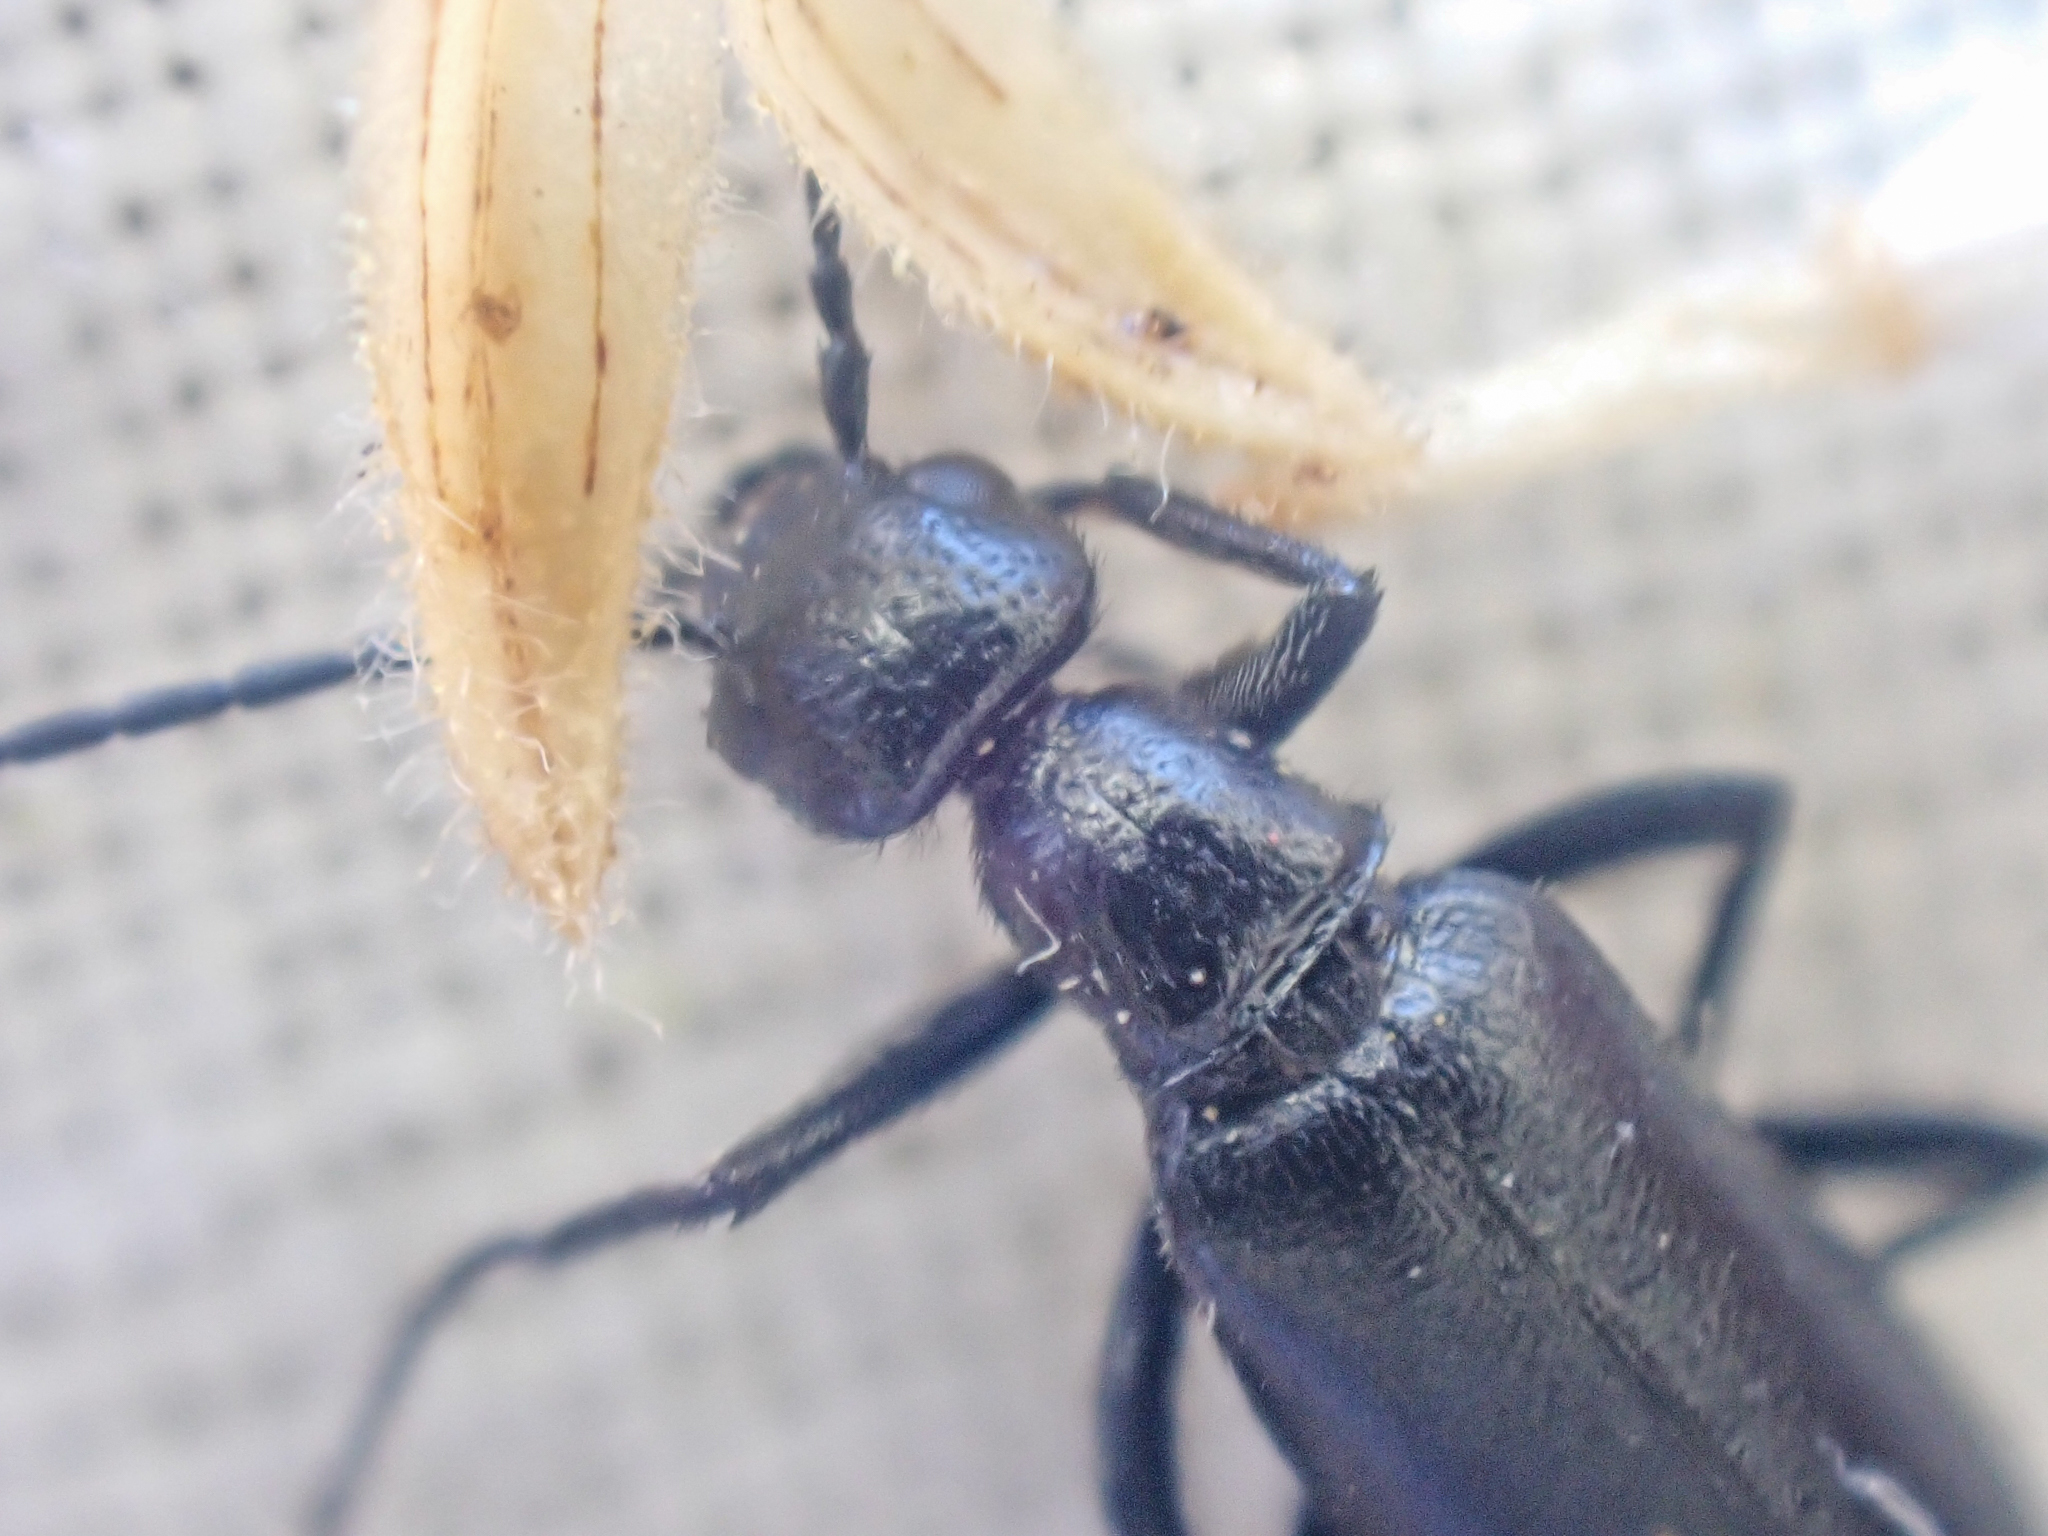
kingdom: Animalia
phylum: Arthropoda
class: Insecta
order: Coleoptera
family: Meloidae
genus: Epicauta
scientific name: Epicauta alphonsii
